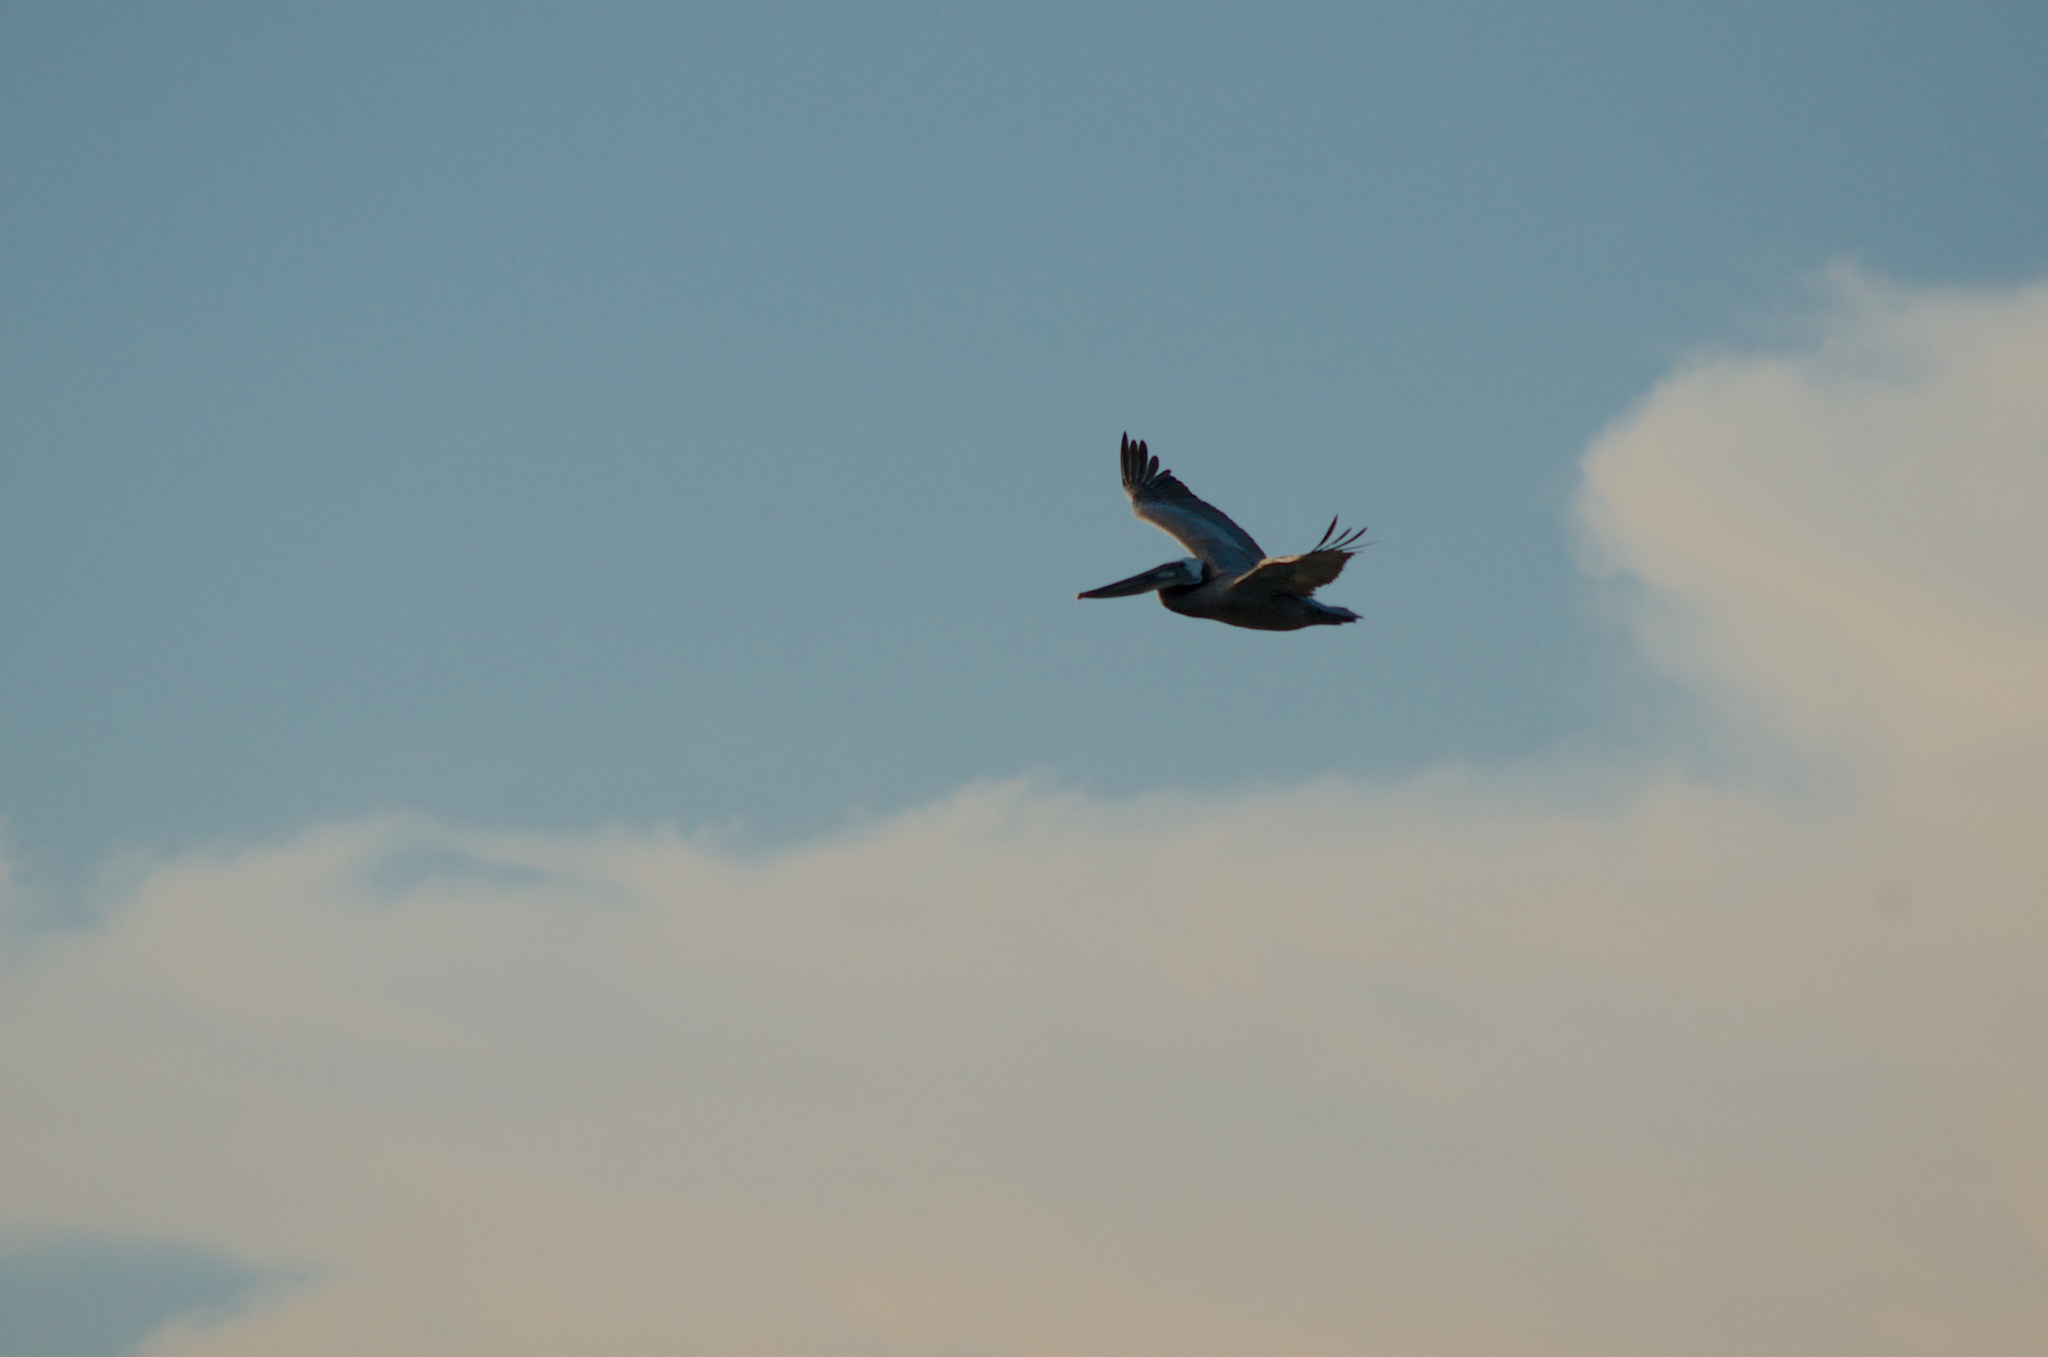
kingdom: Animalia
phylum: Chordata
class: Aves
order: Pelecaniformes
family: Pelecanidae
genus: Pelecanus
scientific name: Pelecanus occidentalis
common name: Brown pelican
